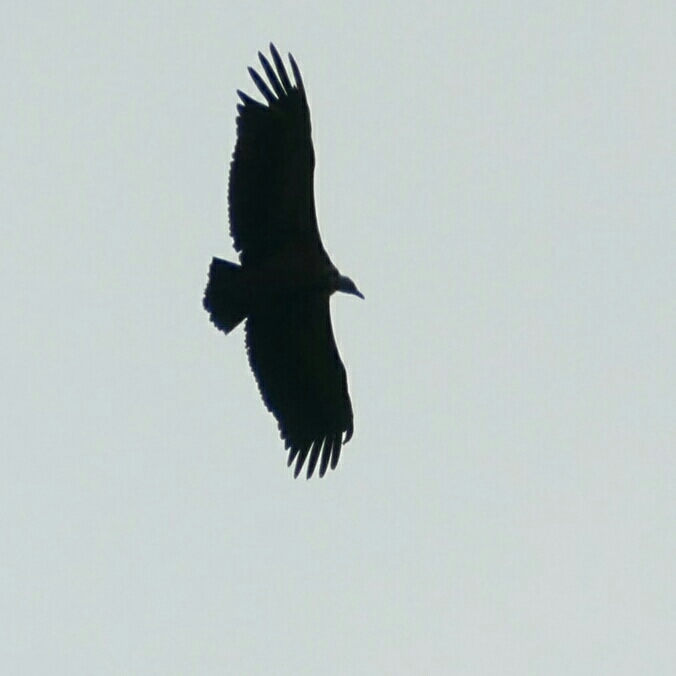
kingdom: Animalia
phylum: Chordata
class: Aves
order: Accipitriformes
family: Accipitridae
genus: Gyps
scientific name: Gyps fulvus
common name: Griffon vulture
